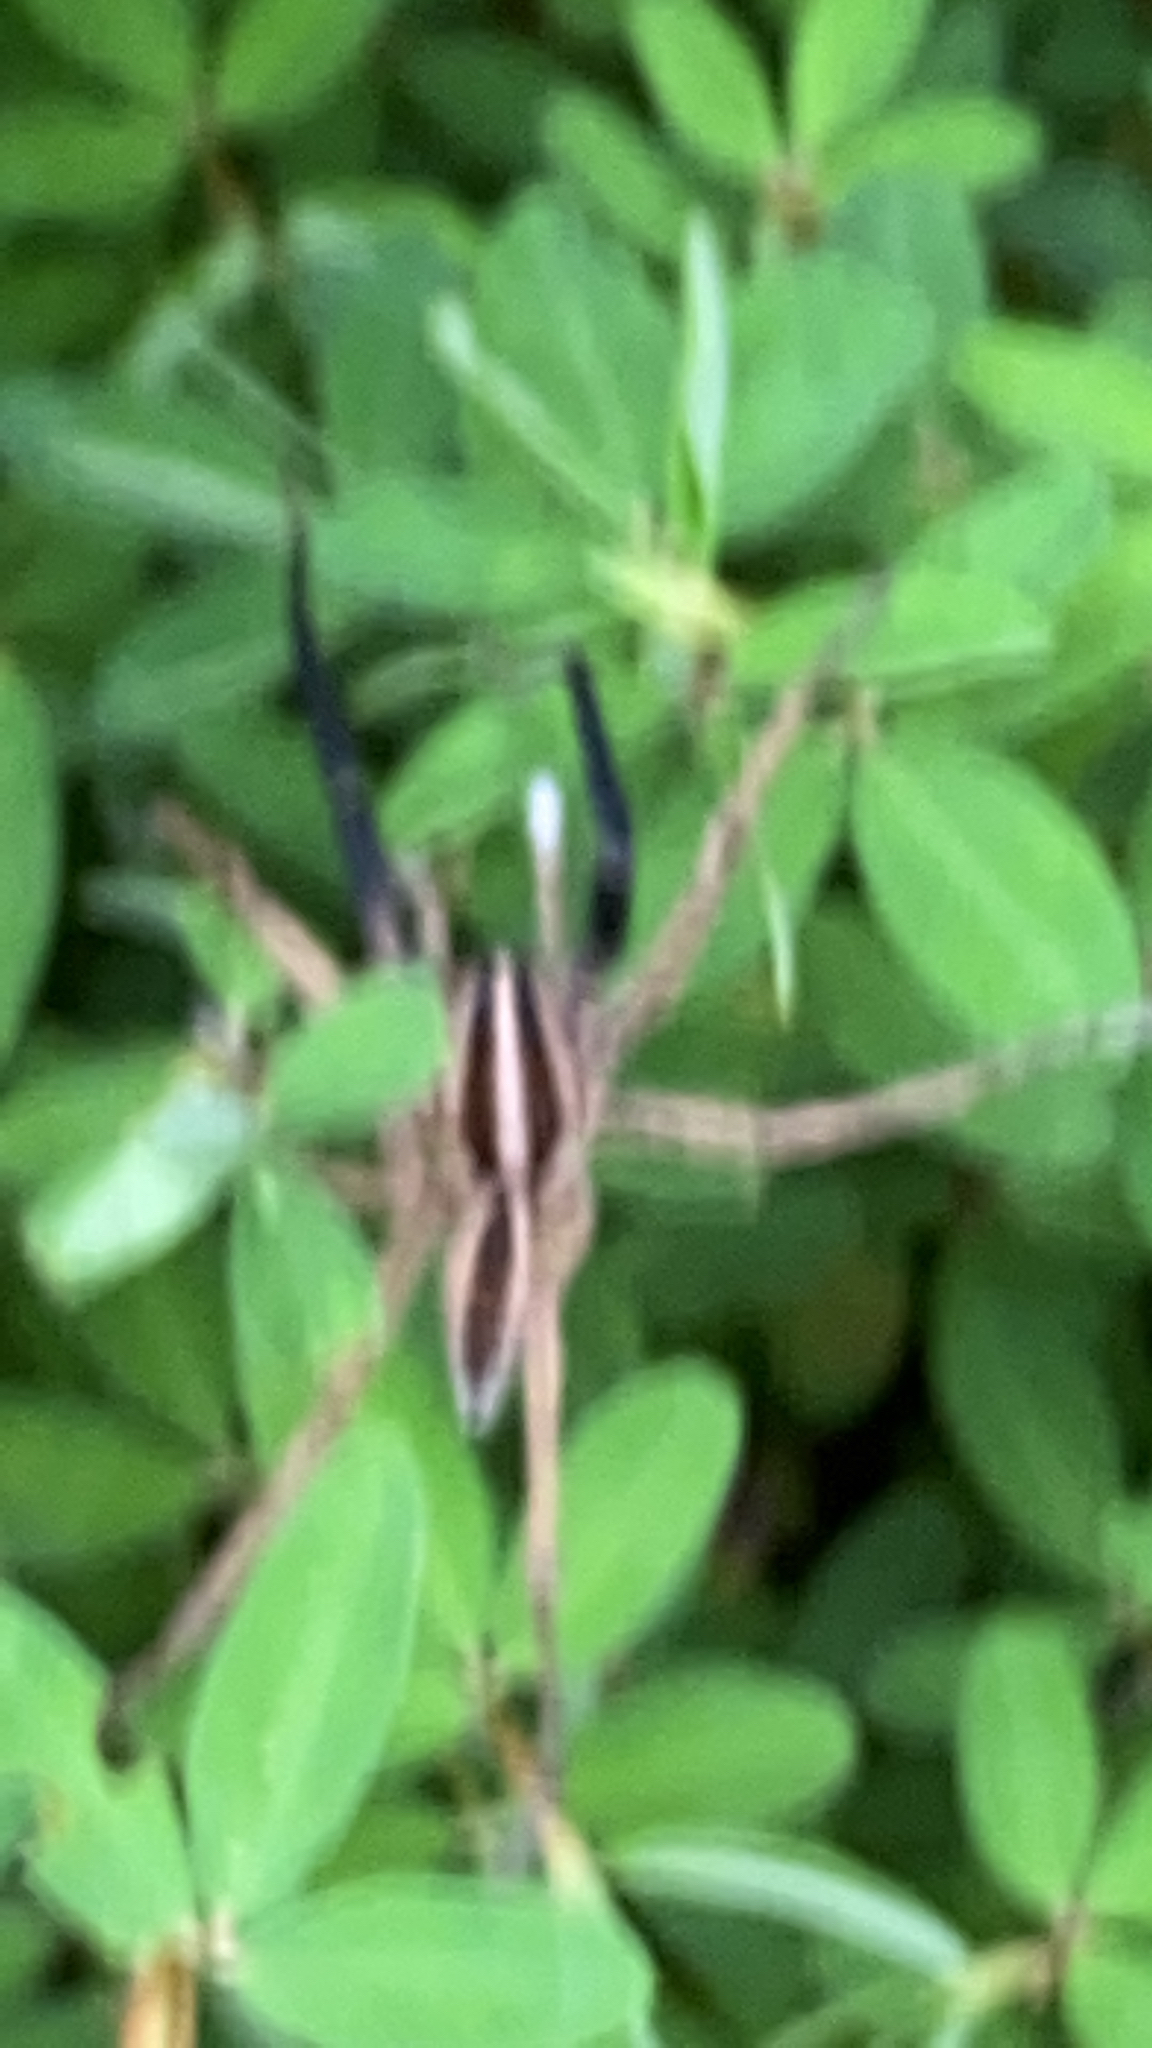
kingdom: Animalia
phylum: Arthropoda
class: Arachnida
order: Araneae
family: Lycosidae
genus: Rabidosa
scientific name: Rabidosa rabida
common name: Rabid wolf spider
